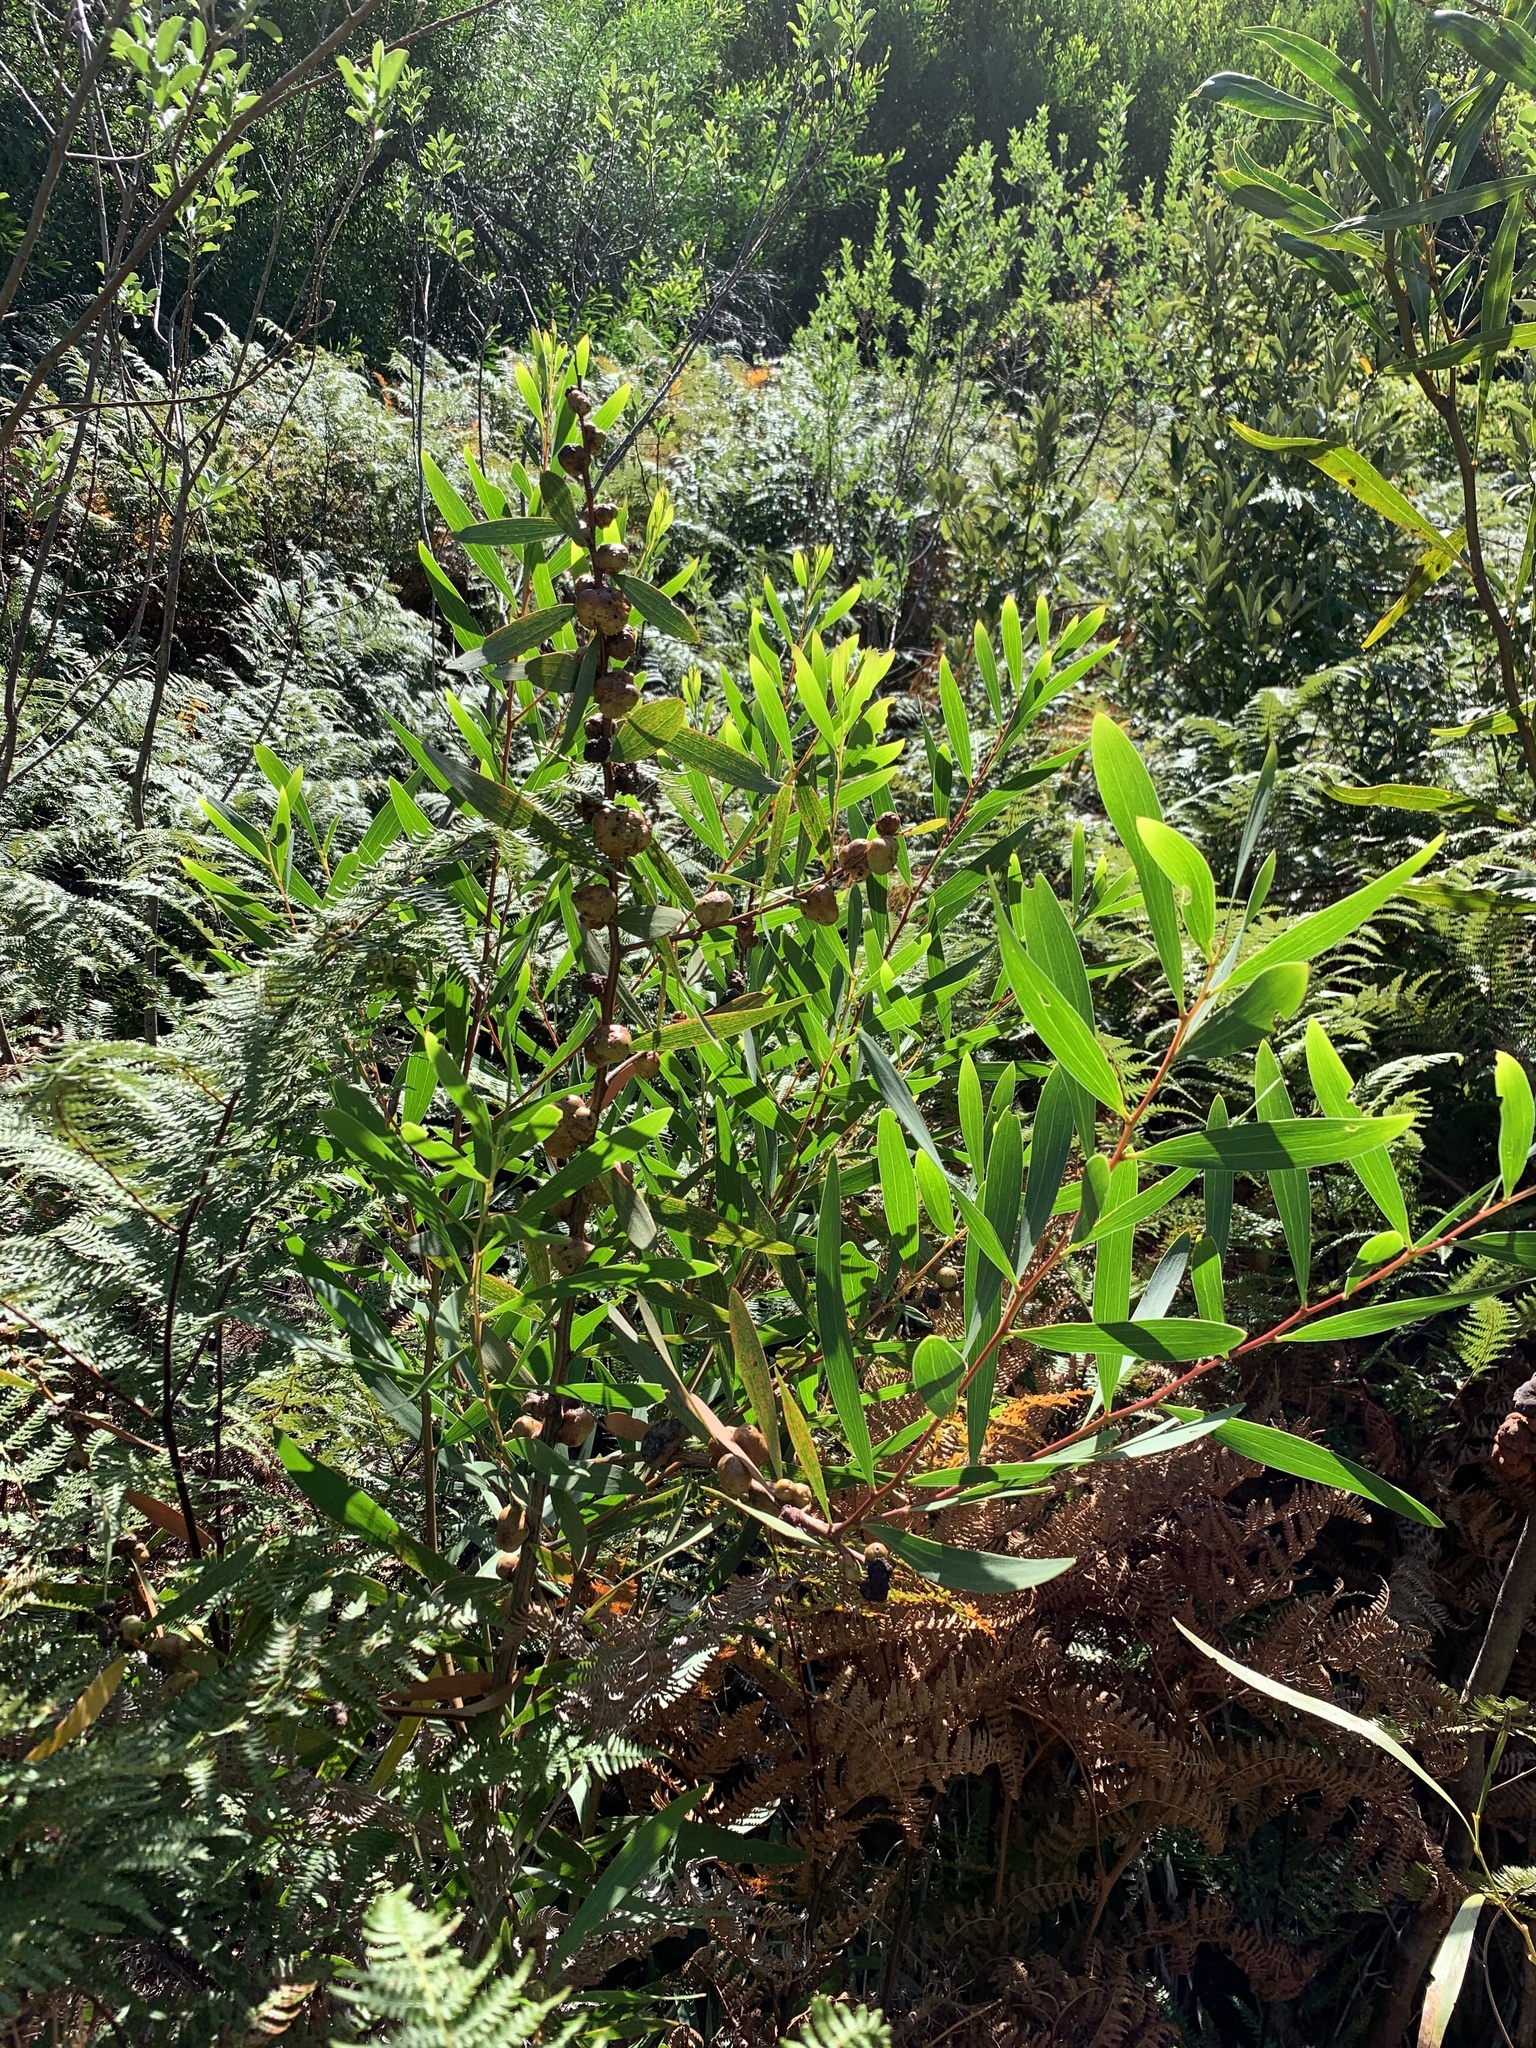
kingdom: Plantae
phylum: Tracheophyta
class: Magnoliopsida
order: Fabales
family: Fabaceae
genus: Acacia
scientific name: Acacia longifolia
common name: Sydney golden wattle
